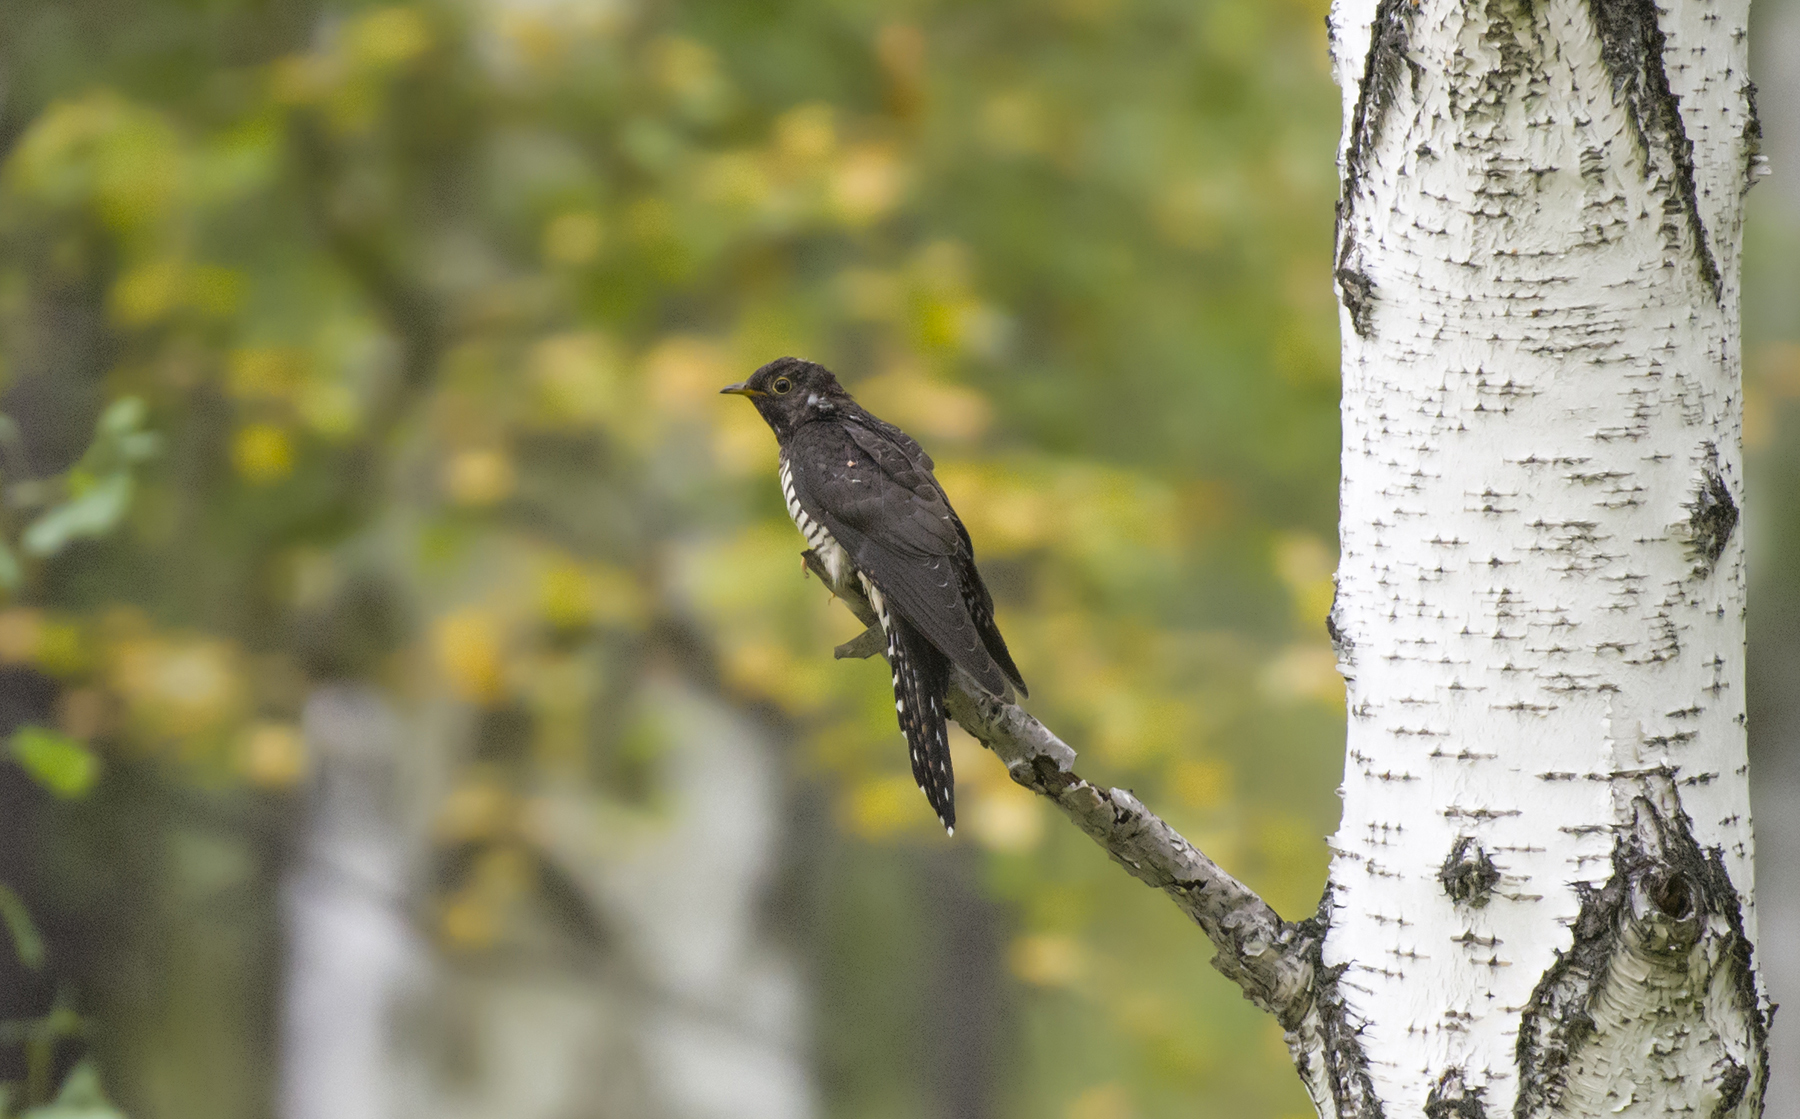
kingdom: Animalia
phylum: Chordata
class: Aves
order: Cuculiformes
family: Cuculidae
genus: Cuculus
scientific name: Cuculus optatus
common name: Oriental cuckoo
